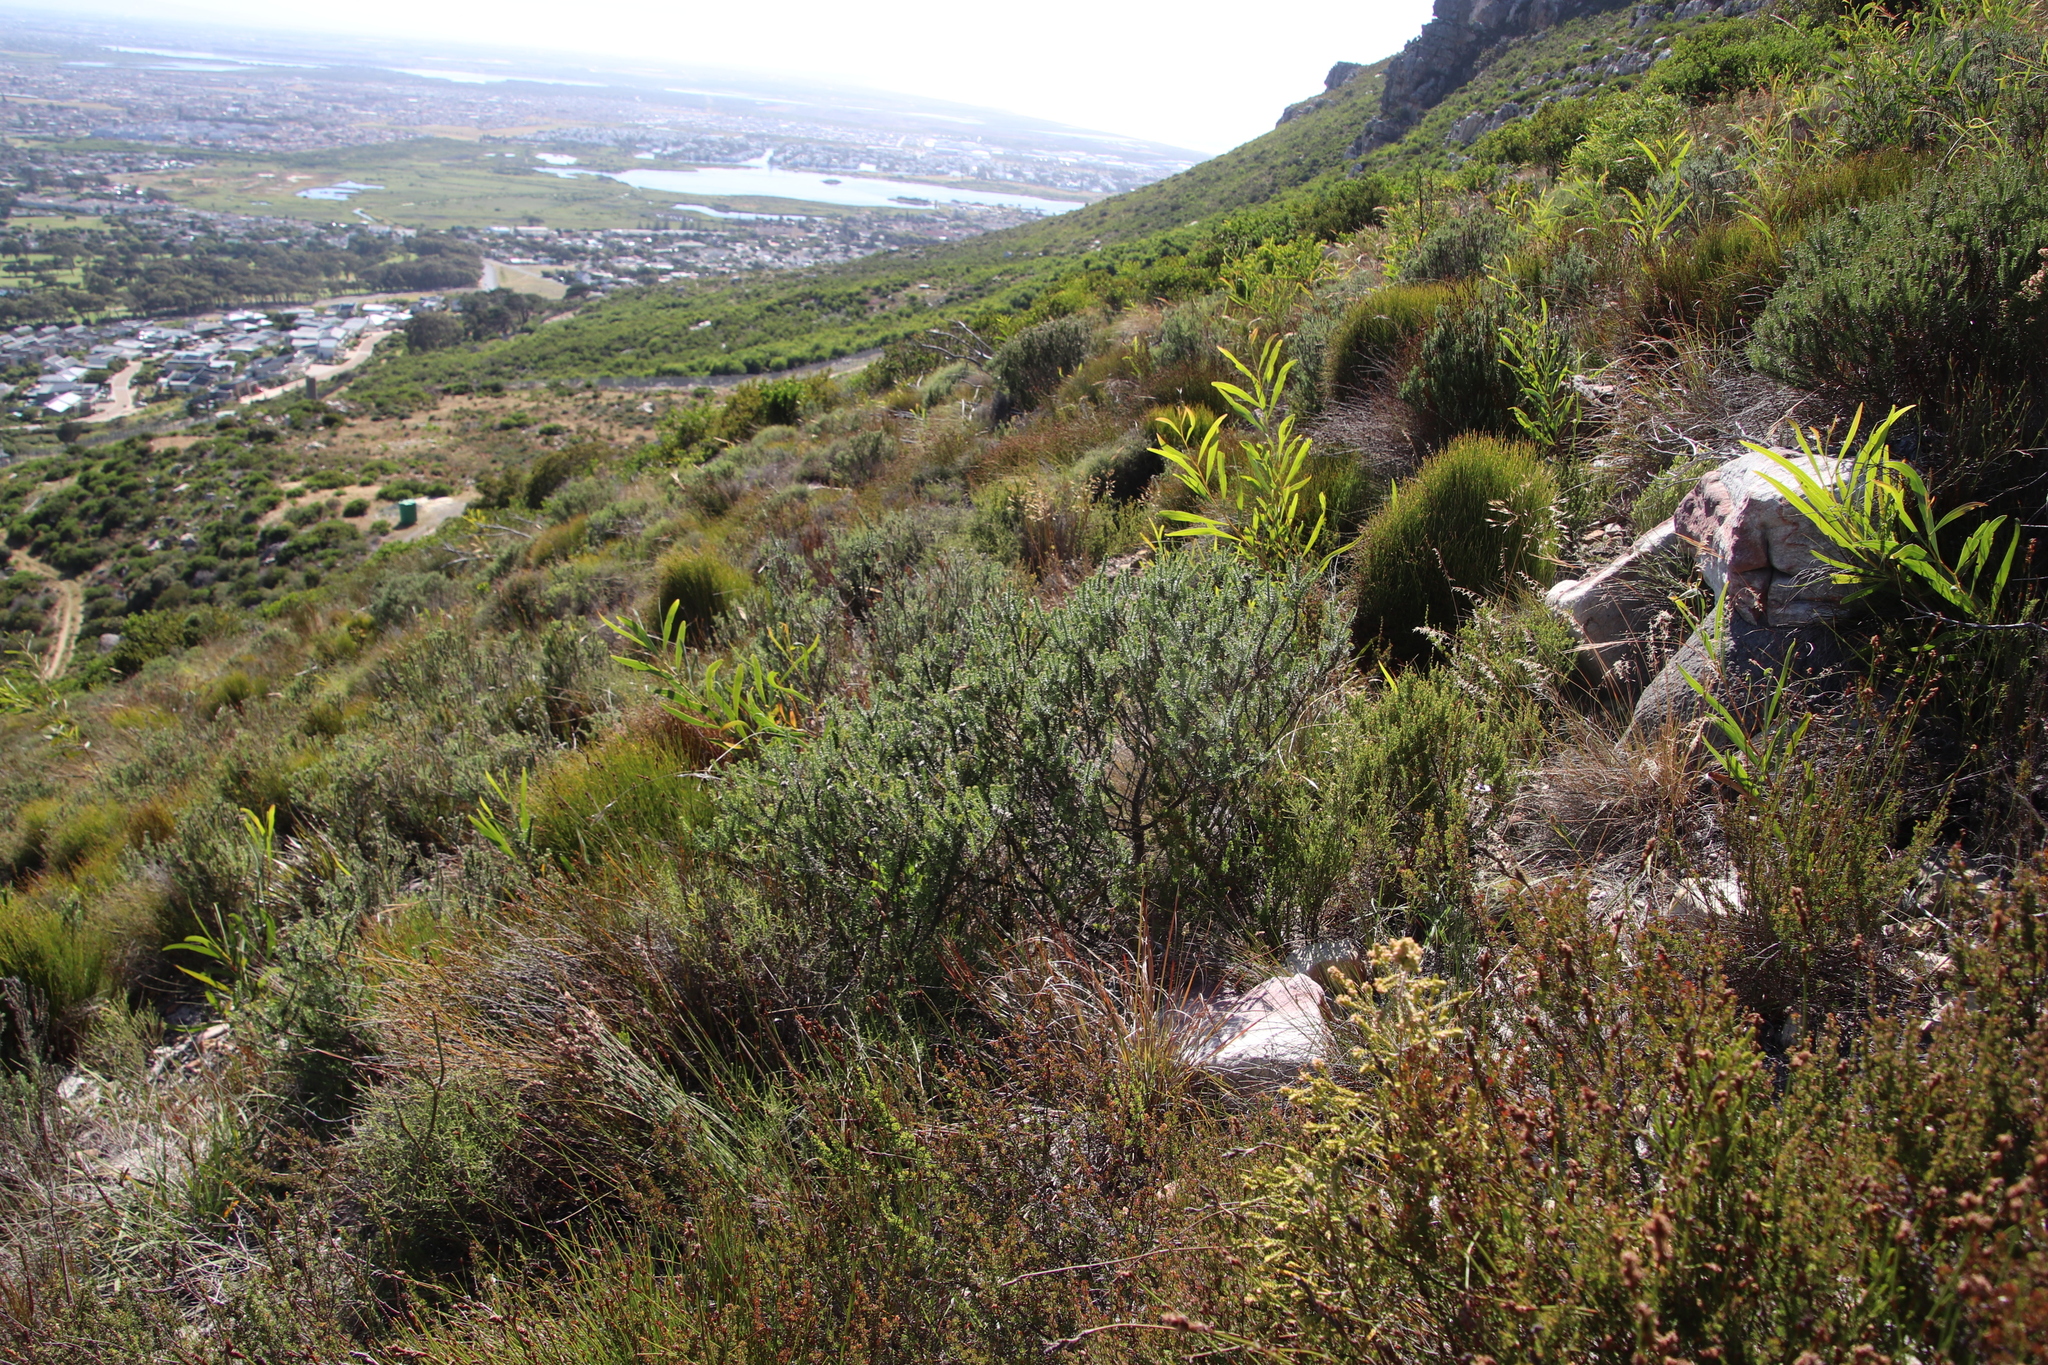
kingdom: Plantae
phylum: Tracheophyta
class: Magnoliopsida
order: Asterales
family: Asteraceae
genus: Metalasia
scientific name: Metalasia densa
